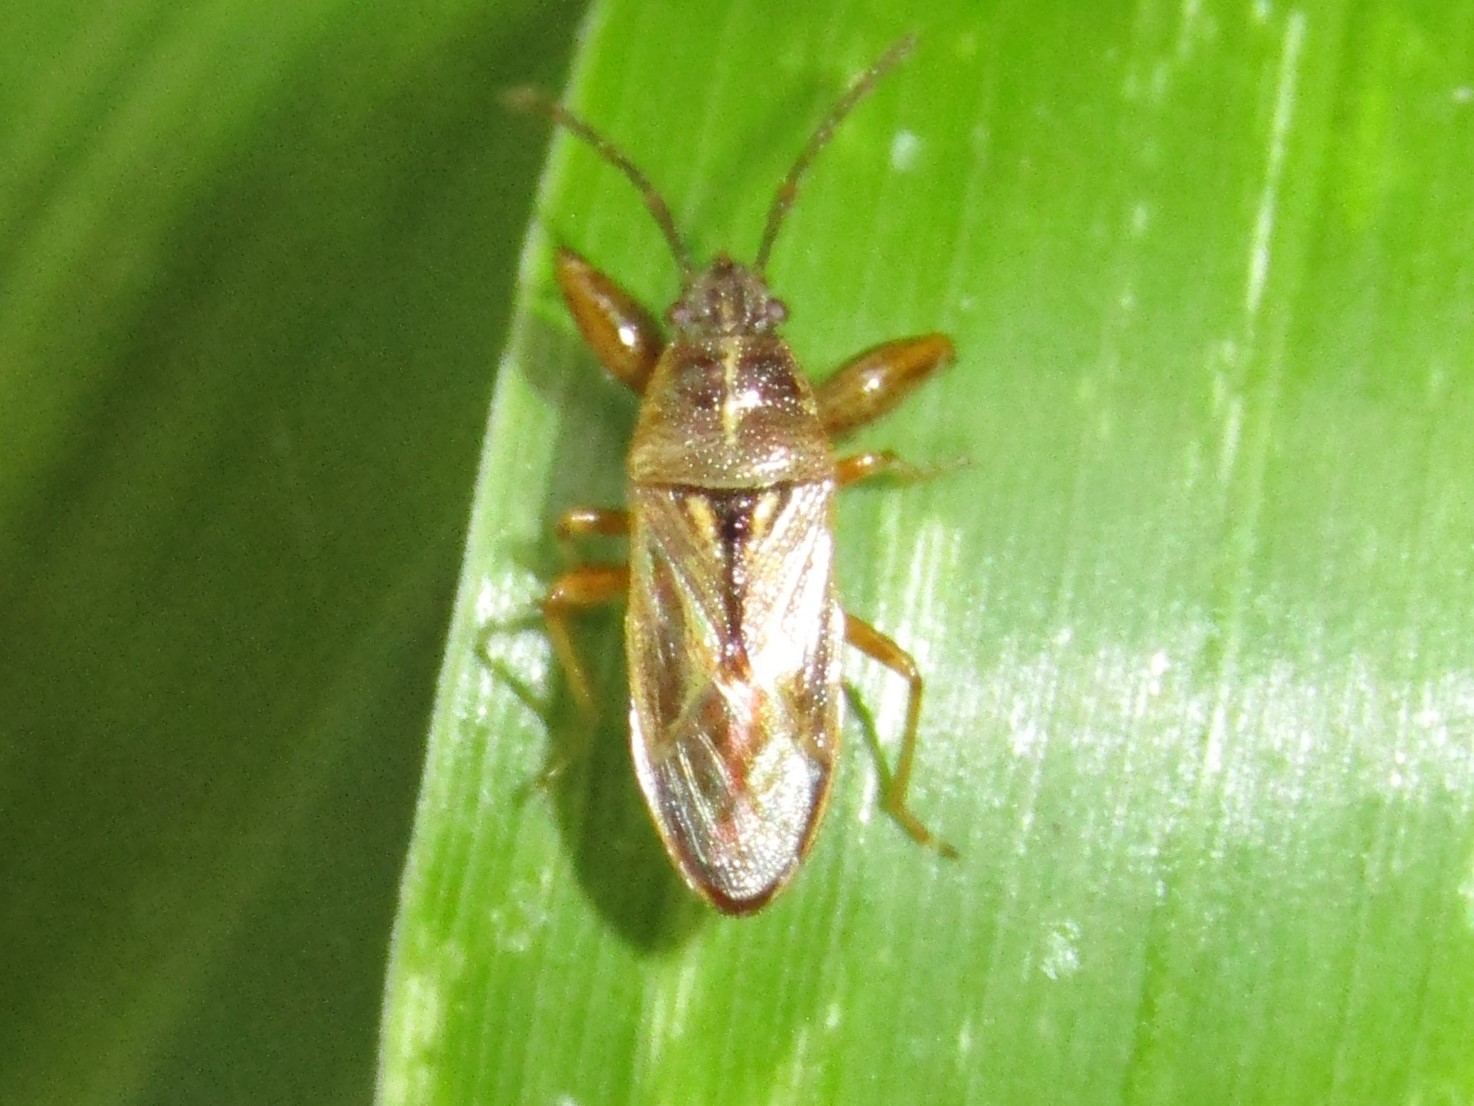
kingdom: Animalia
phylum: Arthropoda
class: Insecta
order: Hemiptera
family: Pachygronthidae
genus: Oedancala
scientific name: Oedancala dorsalis
